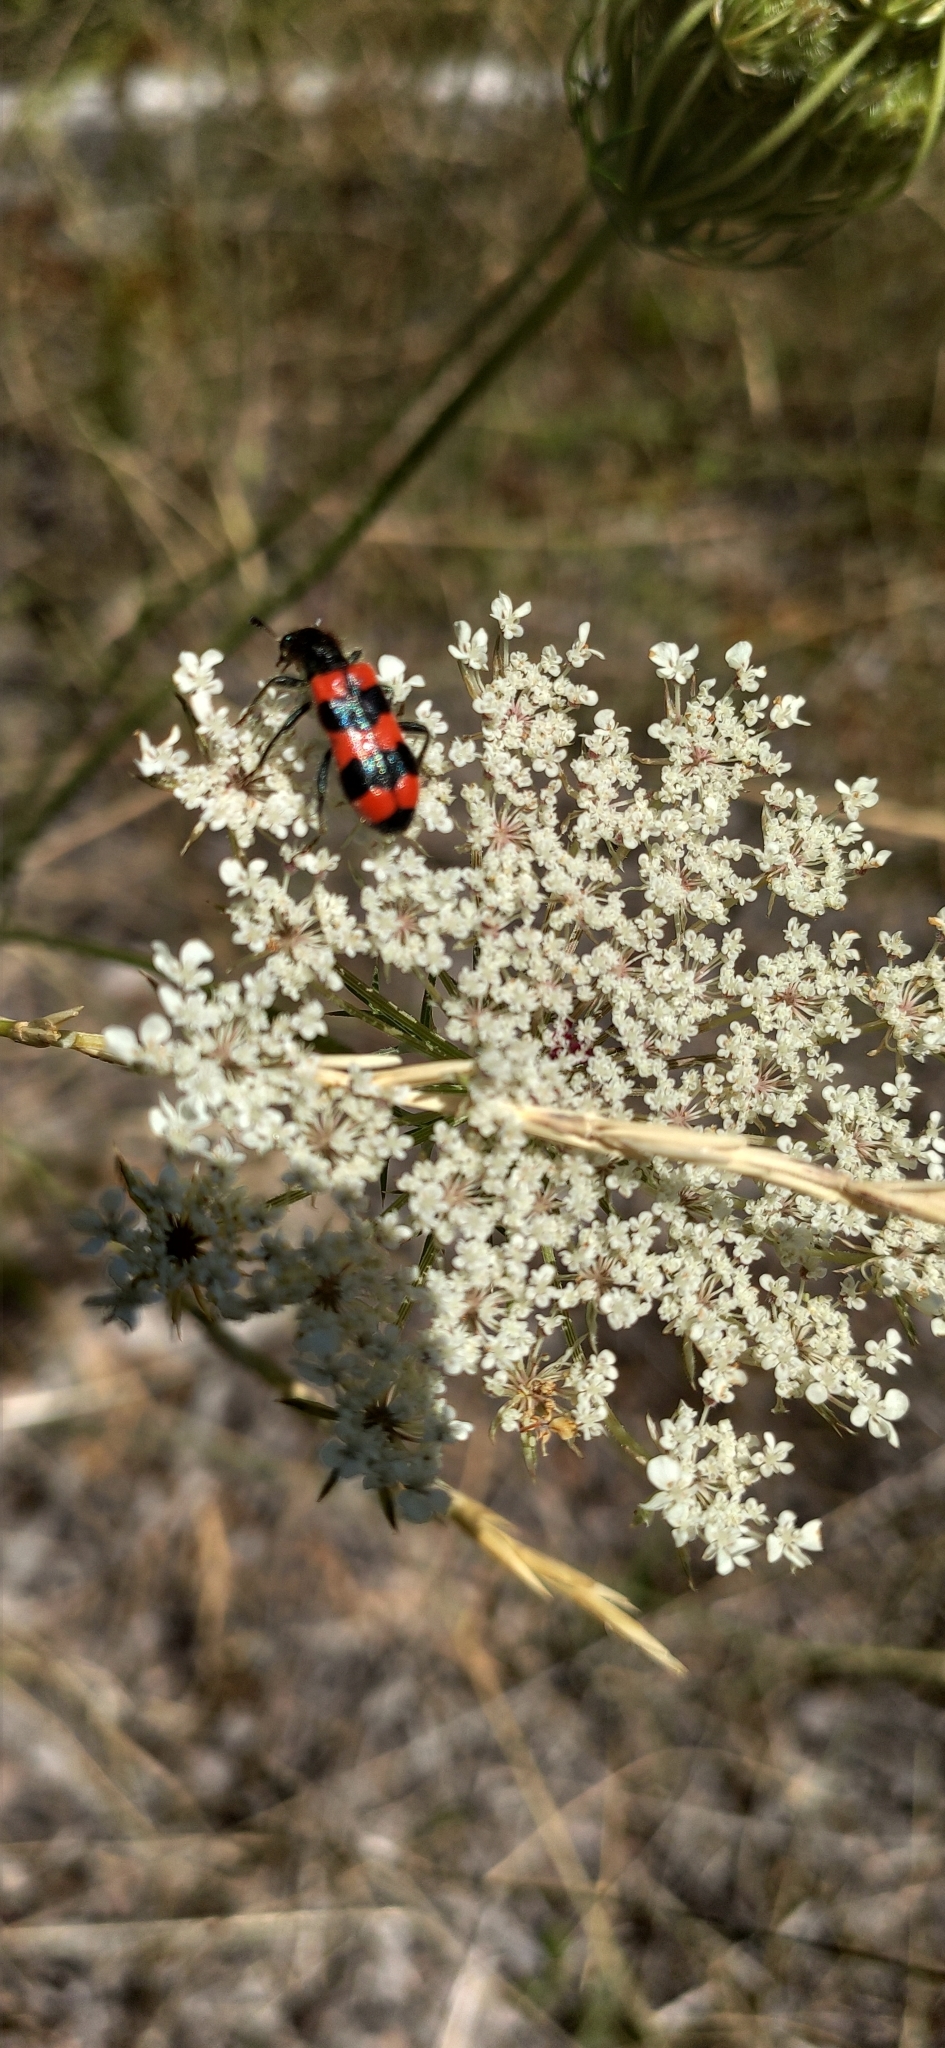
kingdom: Animalia
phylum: Arthropoda
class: Insecta
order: Coleoptera
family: Cleridae
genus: Trichodes
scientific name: Trichodes apiarius
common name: Bee-eating beetle
